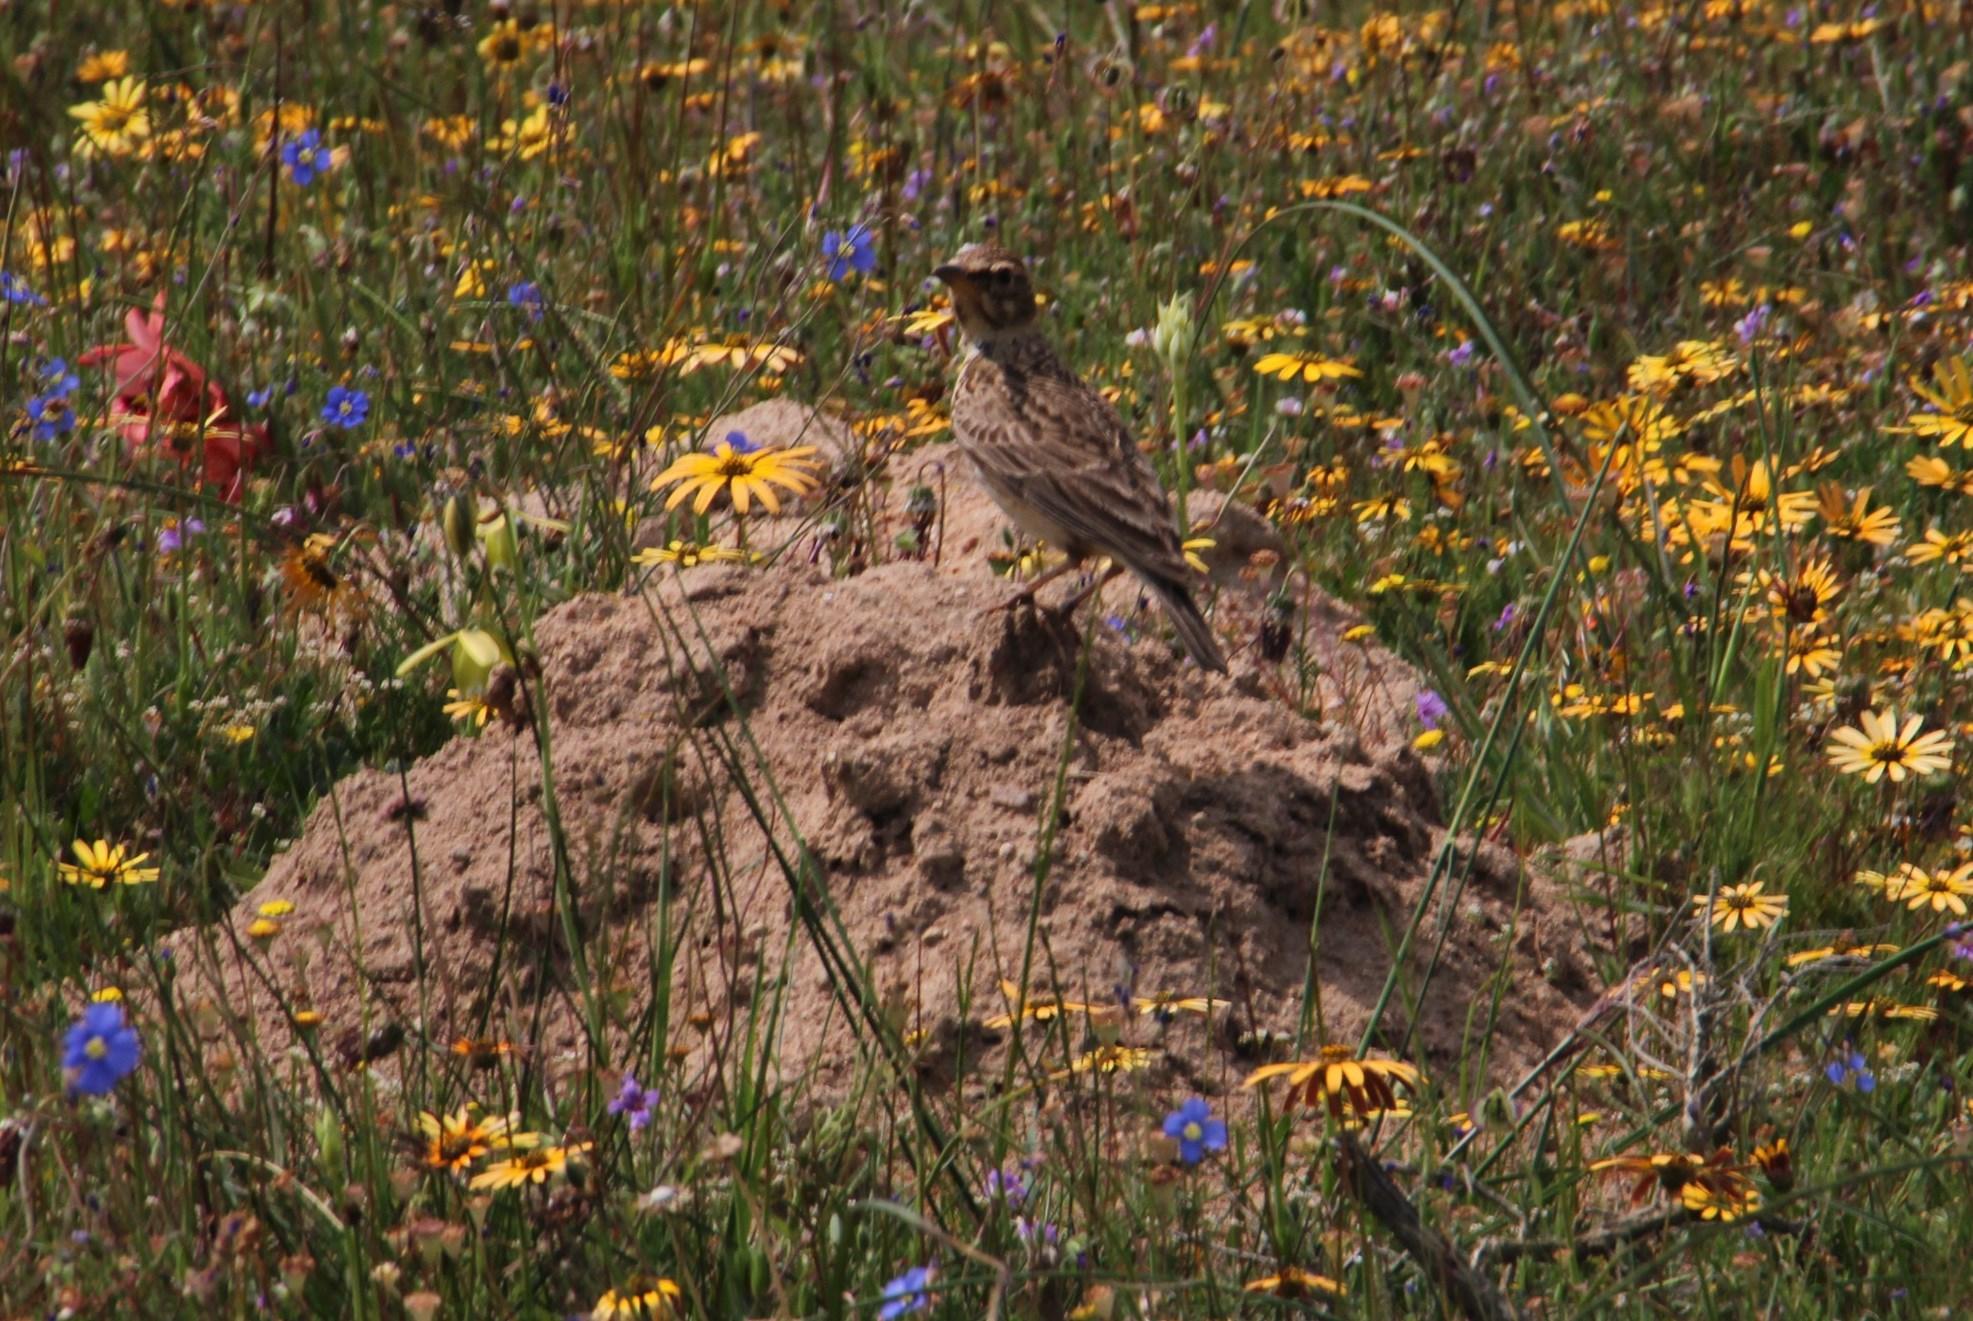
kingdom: Animalia
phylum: Chordata
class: Aves
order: Passeriformes
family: Alaudidae
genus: Galerida
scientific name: Galerida magnirostris
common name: Large-billed lark
